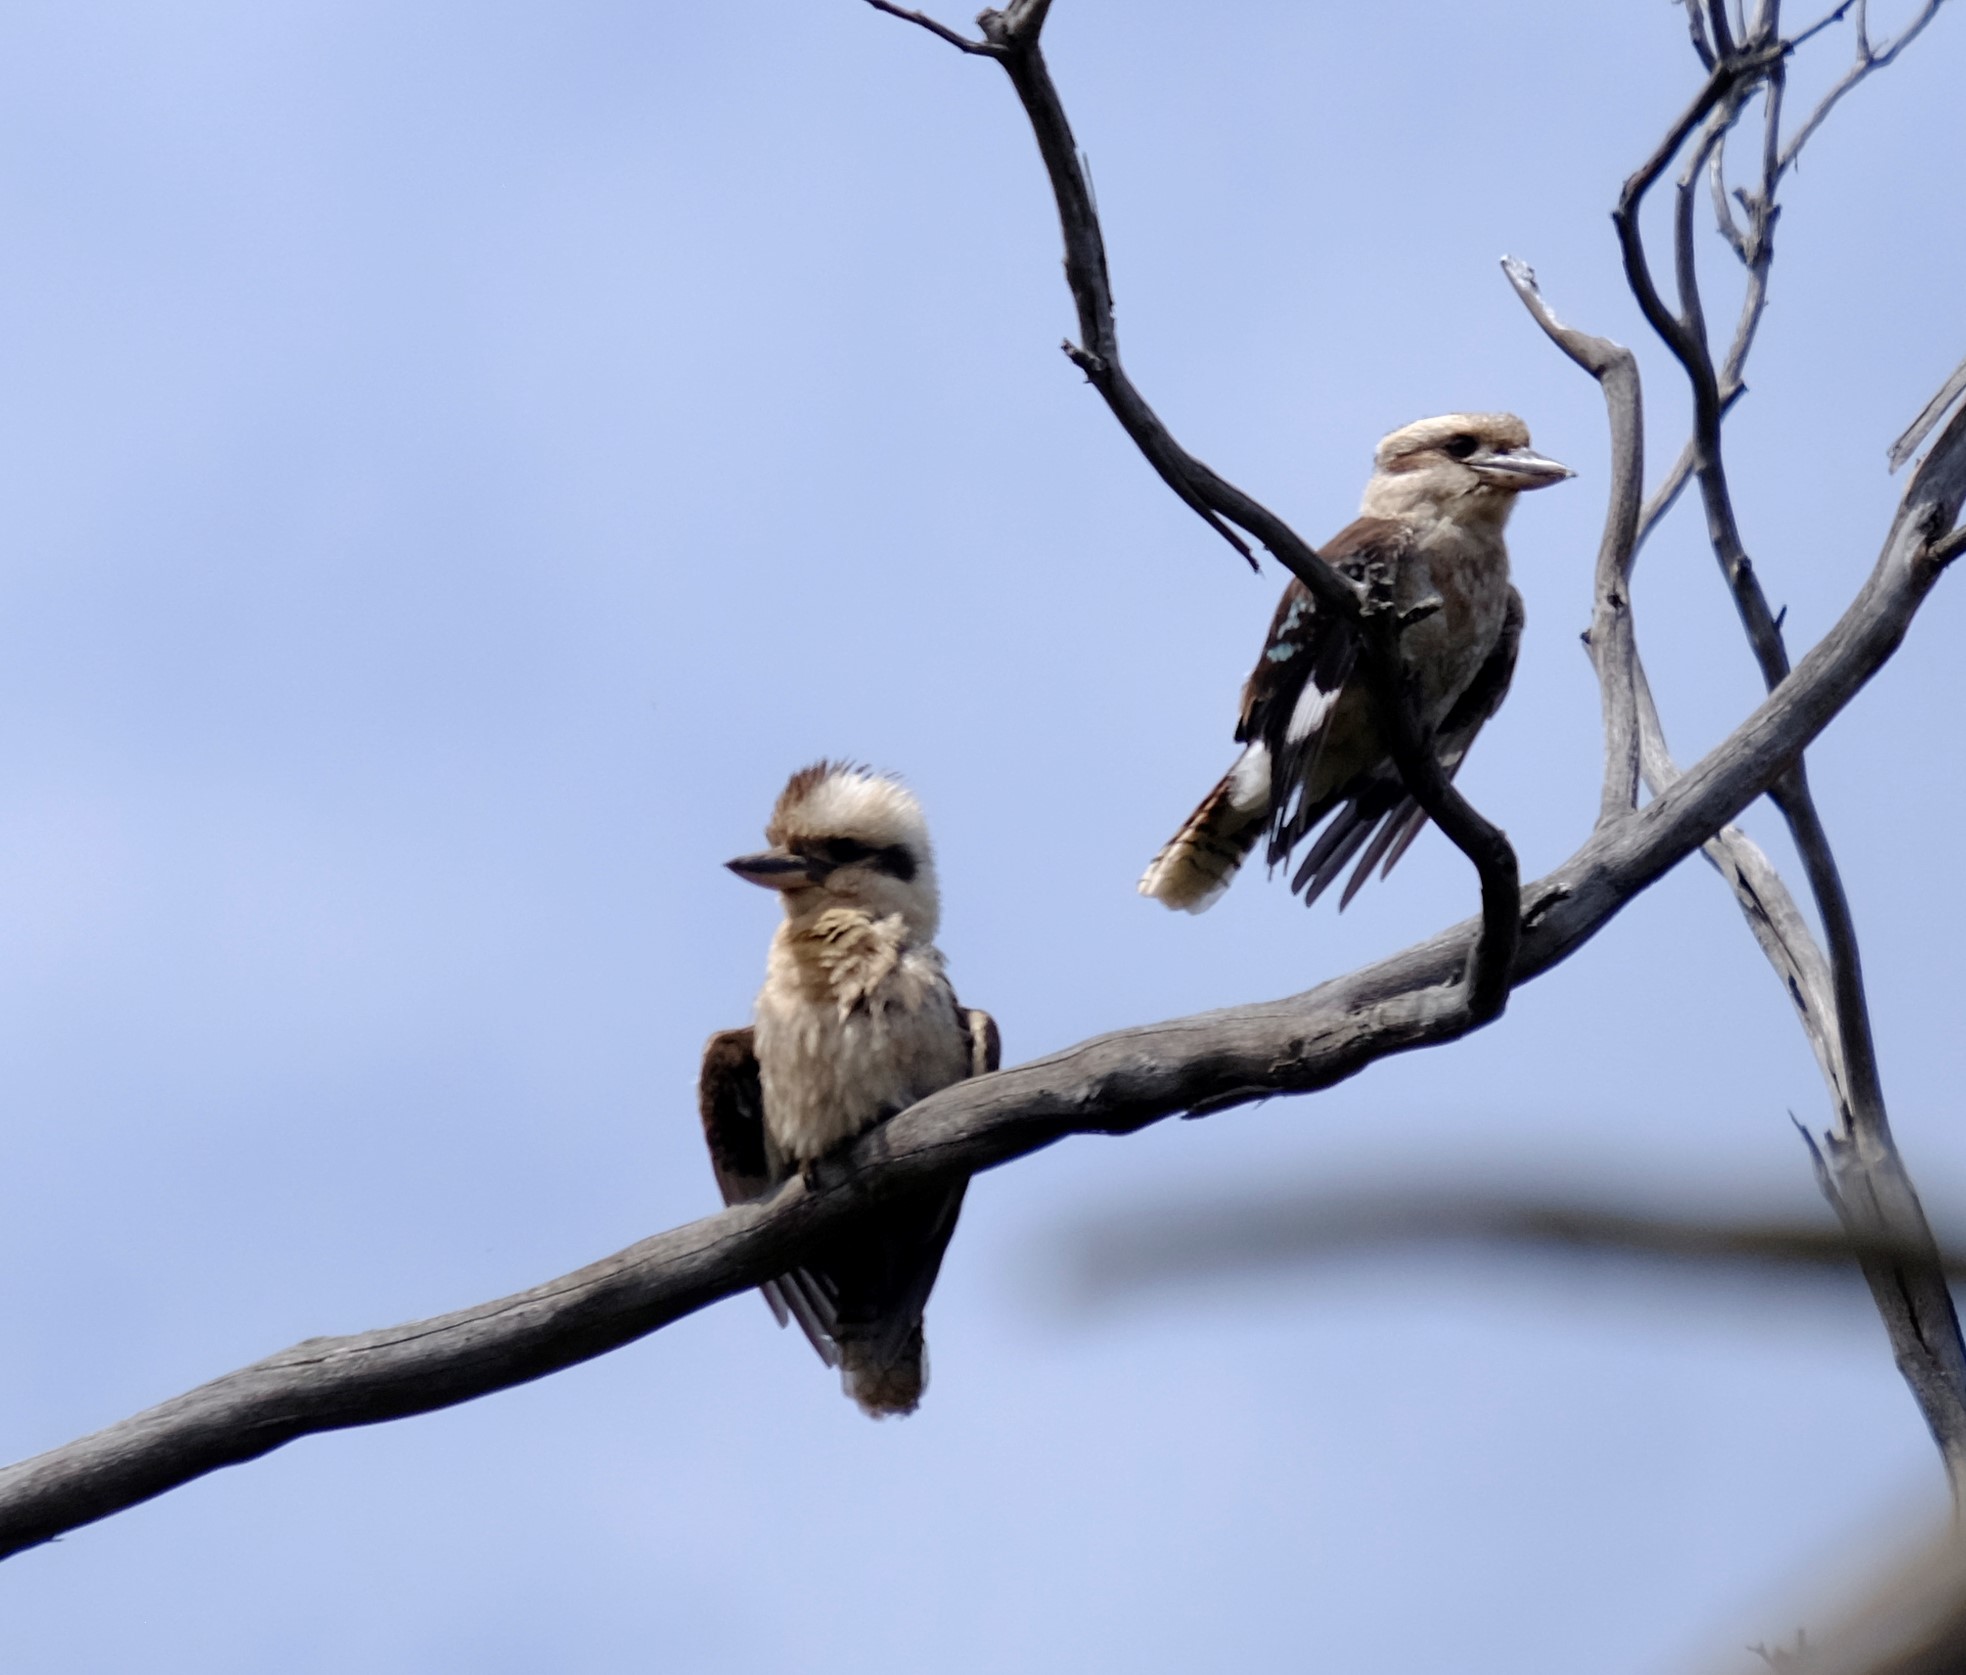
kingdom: Animalia
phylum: Chordata
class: Aves
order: Coraciiformes
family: Alcedinidae
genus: Dacelo
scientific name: Dacelo novaeguineae
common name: Laughing kookaburra
